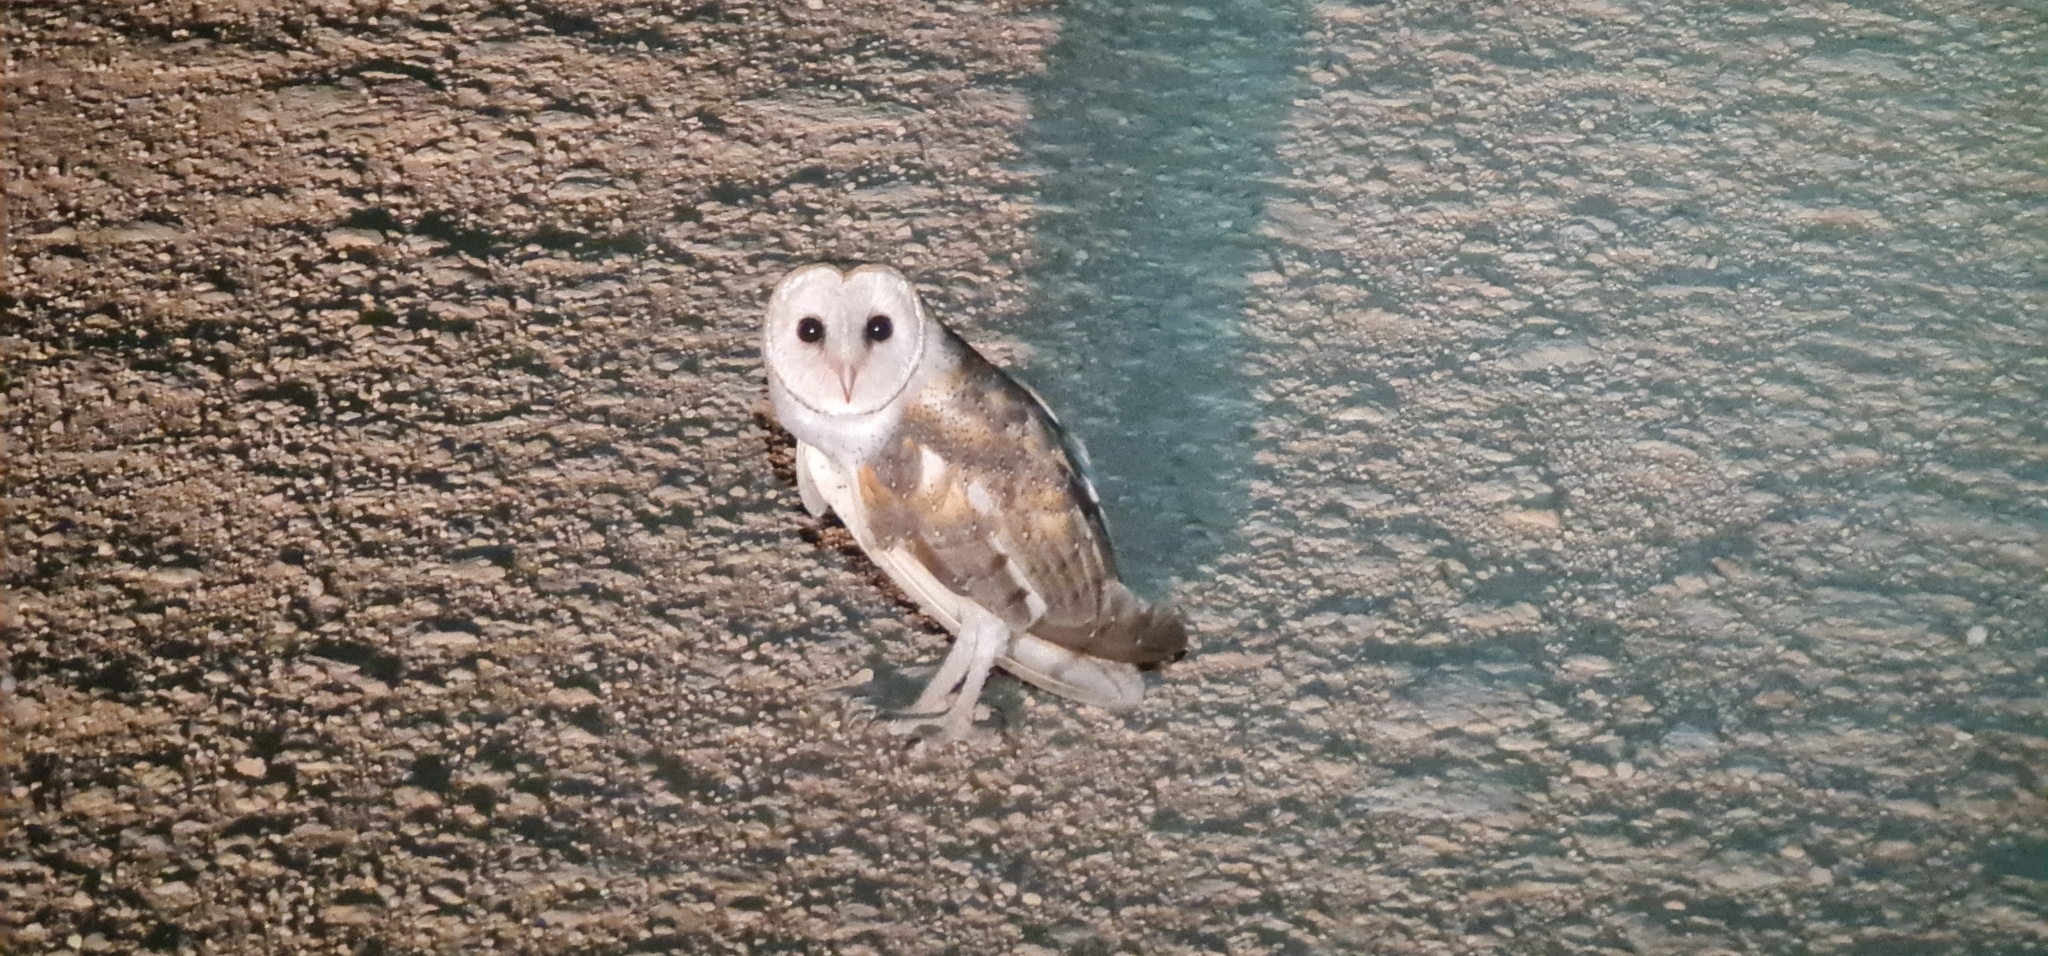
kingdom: Animalia
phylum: Chordata
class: Aves
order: Strigiformes
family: Tytonidae
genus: Tyto
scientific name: Tyto alba
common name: Barn owl
